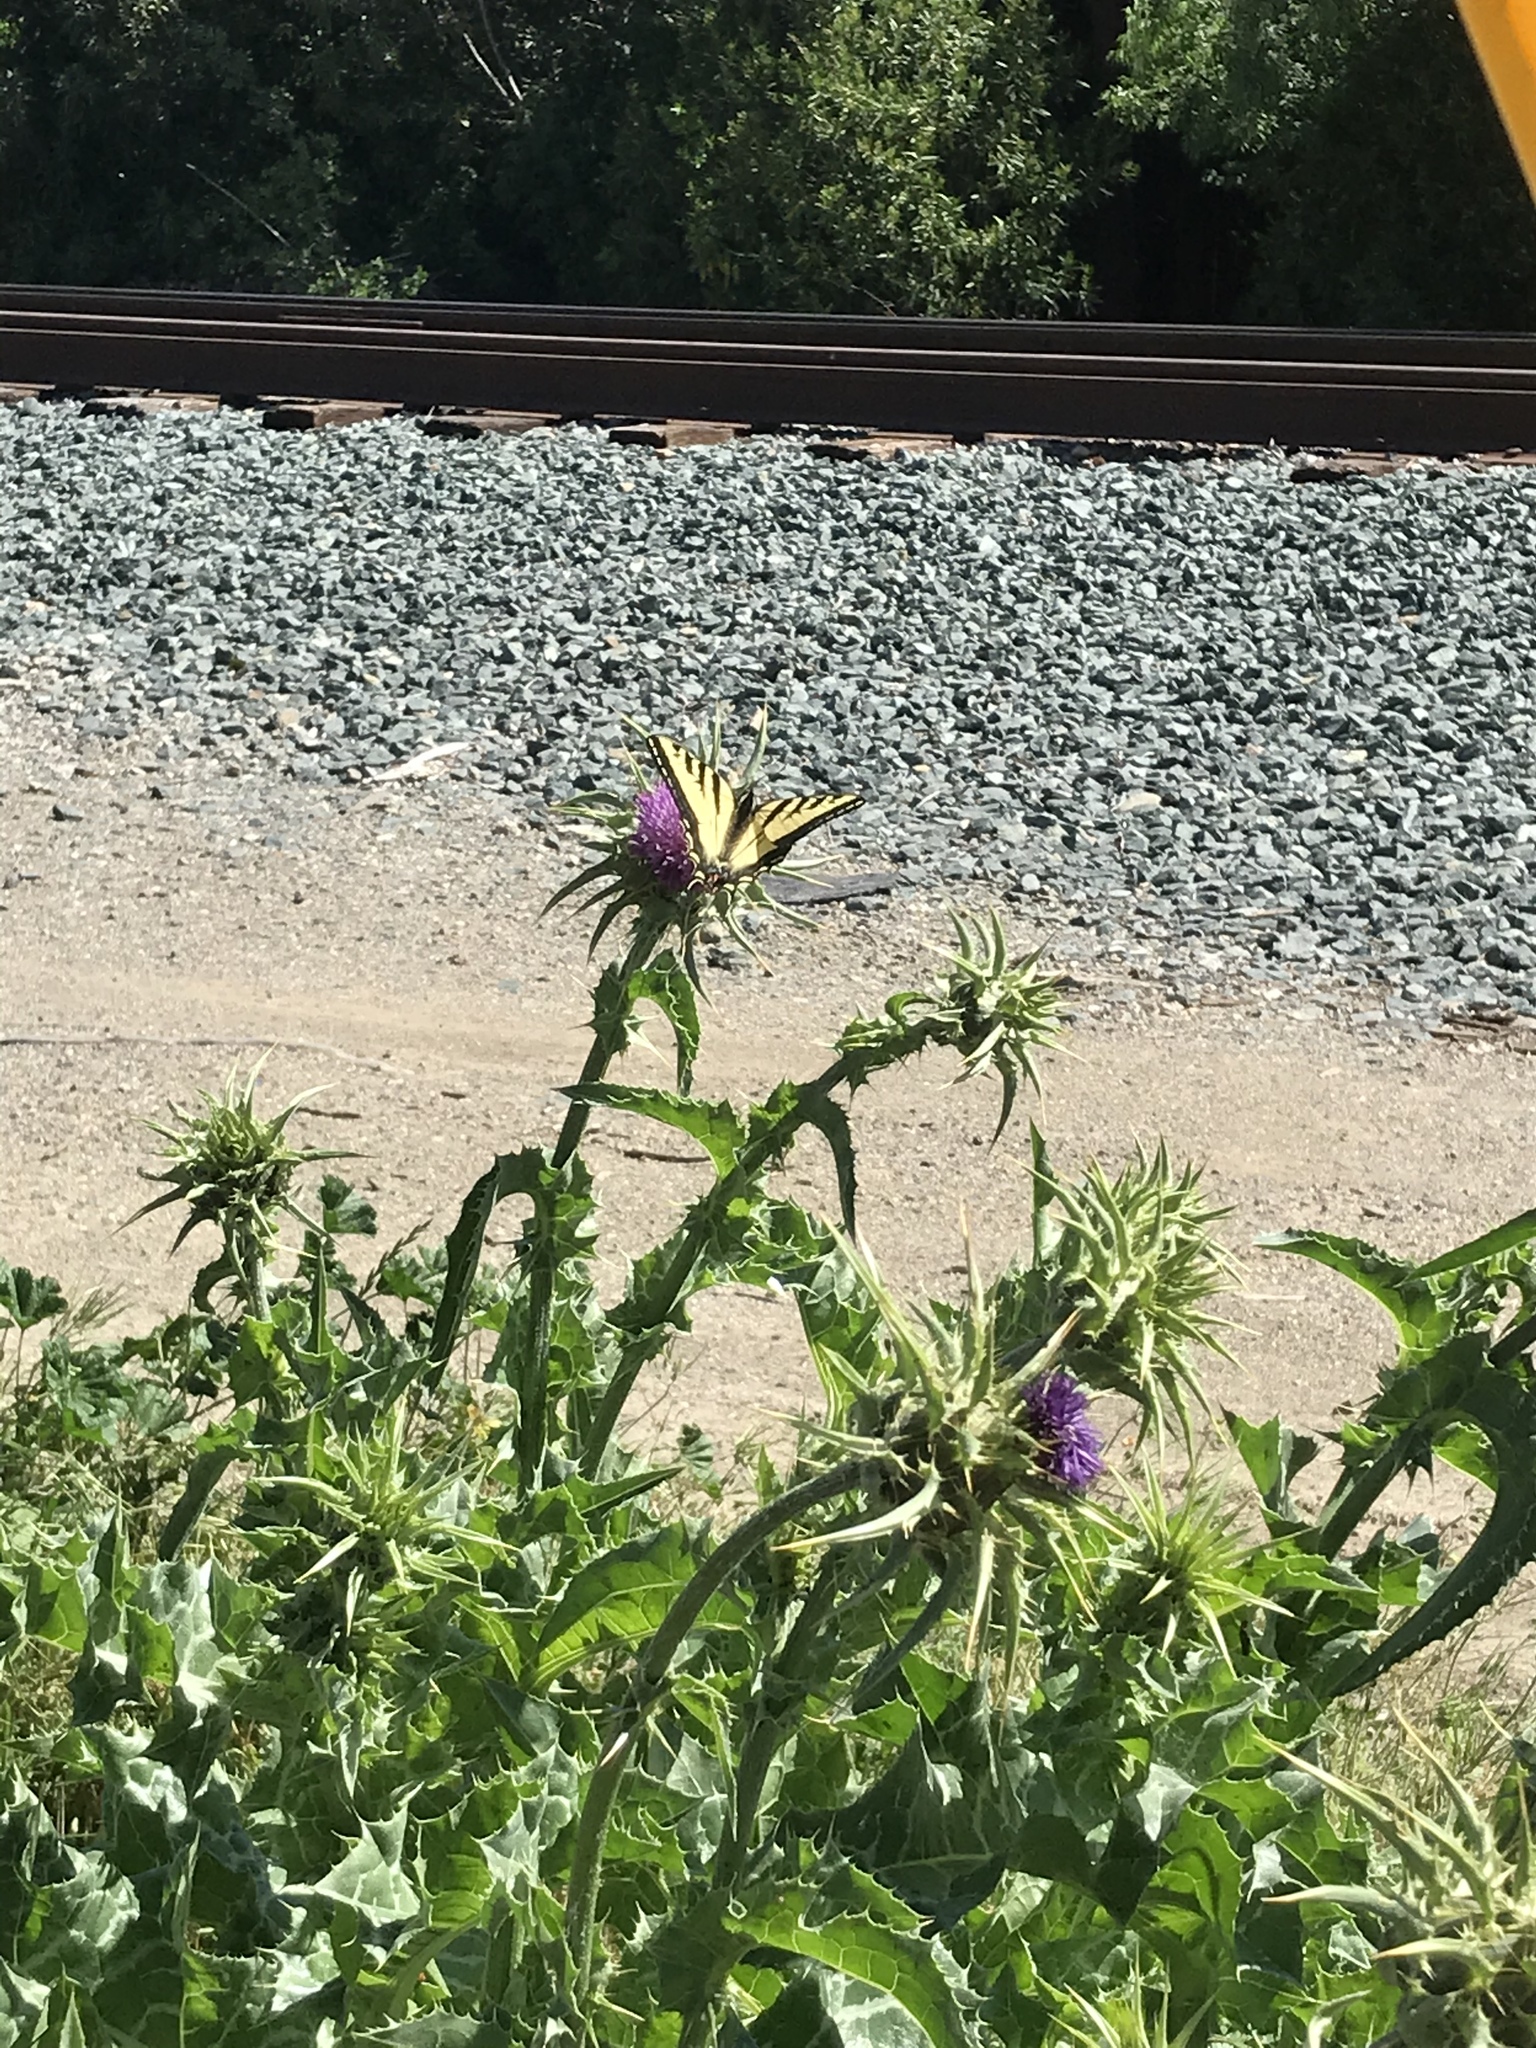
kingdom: Animalia
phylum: Arthropoda
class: Insecta
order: Lepidoptera
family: Papilionidae
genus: Papilio
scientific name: Papilio rutulus
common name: Western tiger swallowtail
